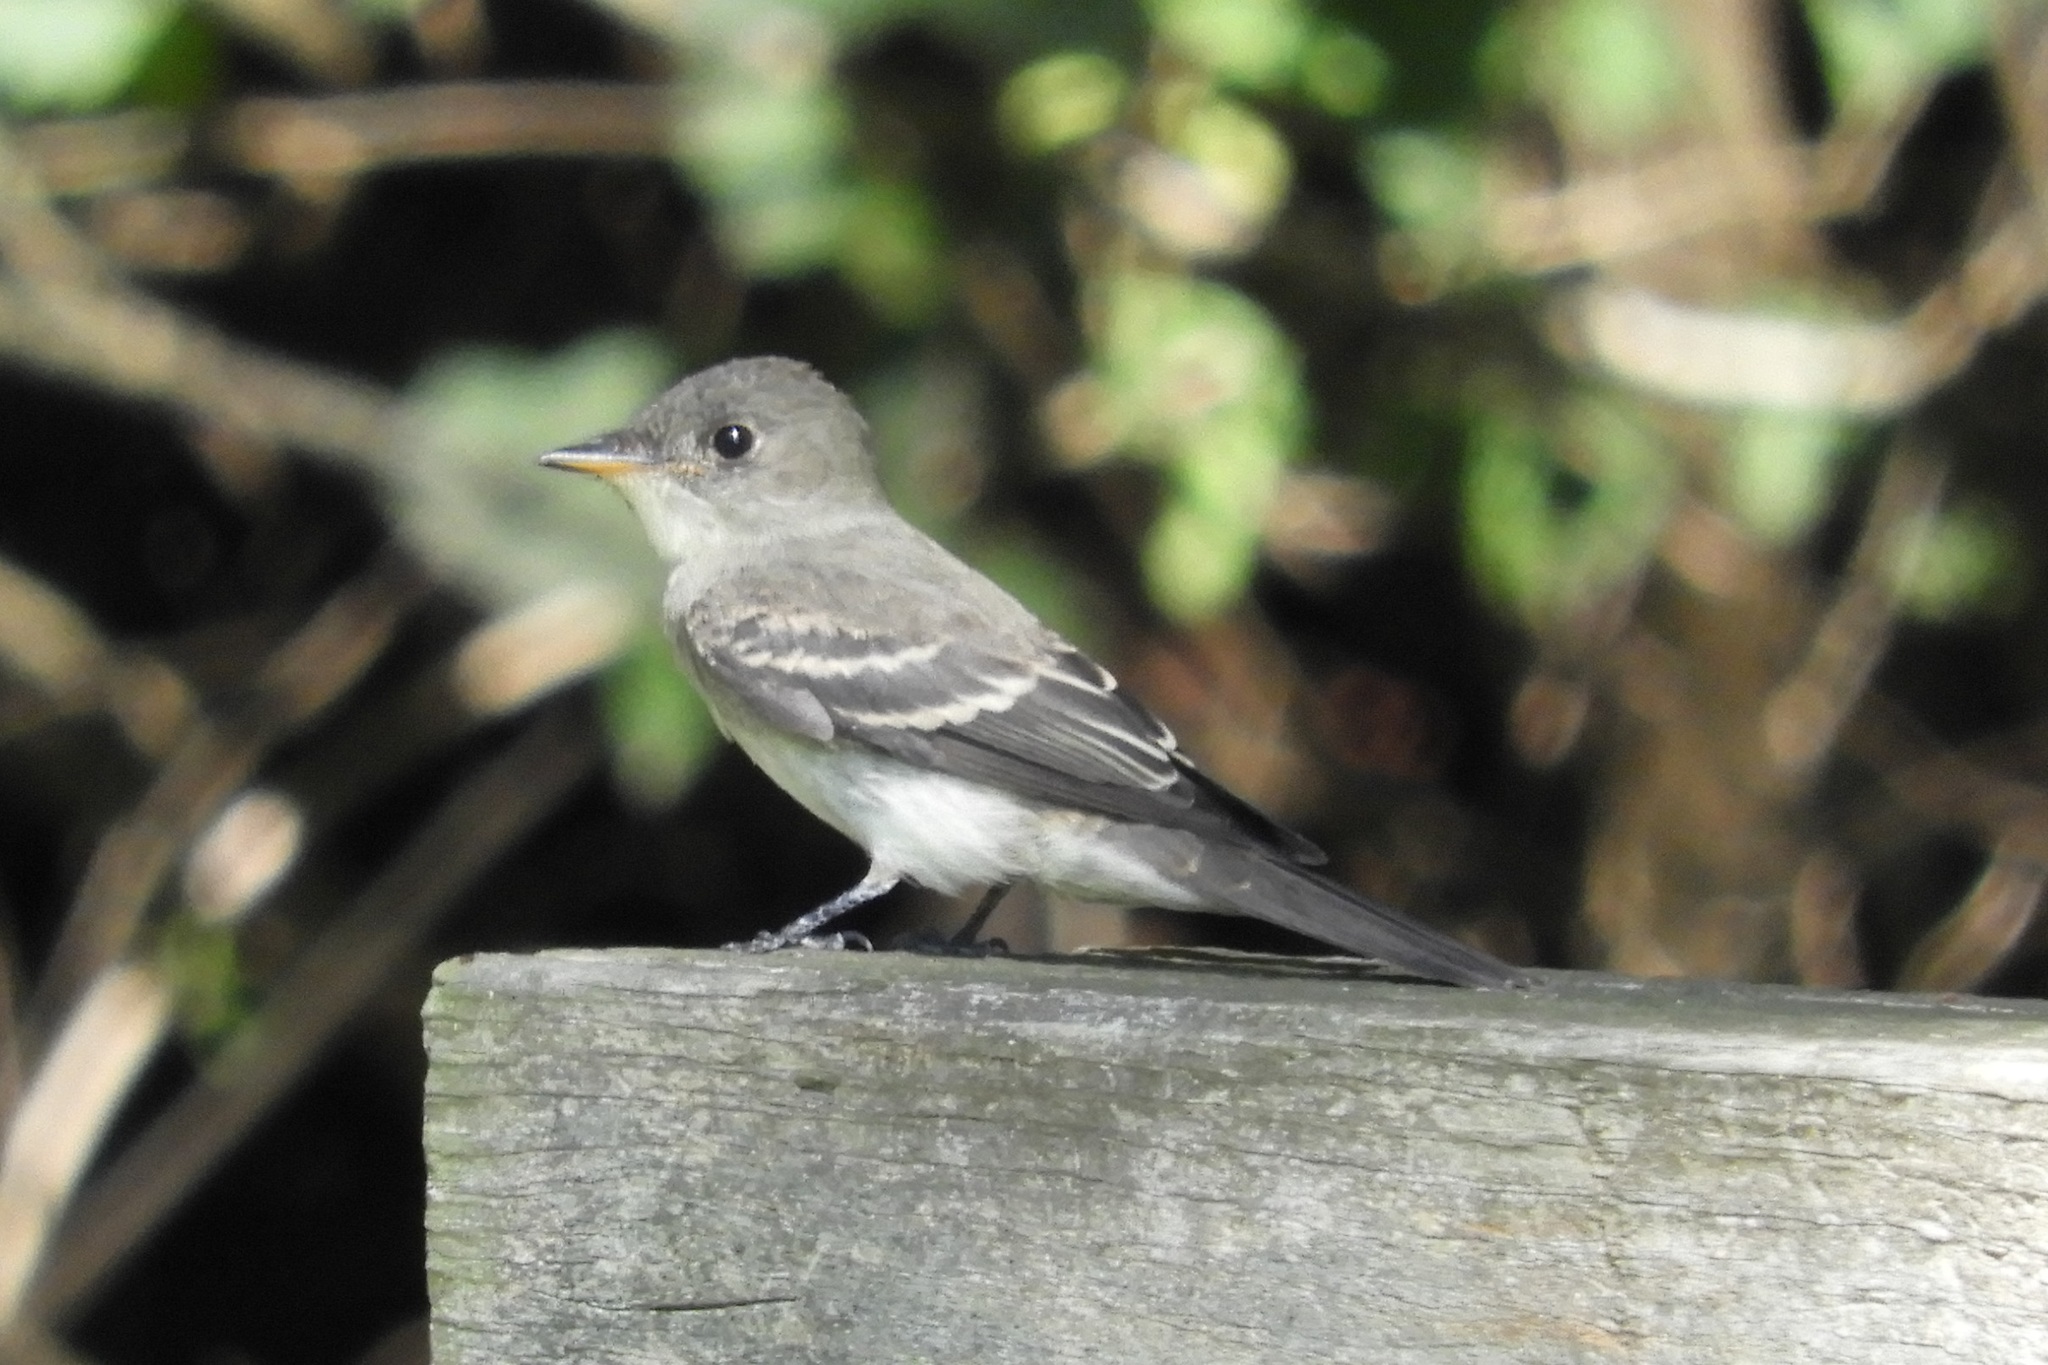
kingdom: Animalia
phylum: Chordata
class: Aves
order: Passeriformes
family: Tyrannidae
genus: Contopus
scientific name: Contopus virens
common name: Eastern wood-pewee
